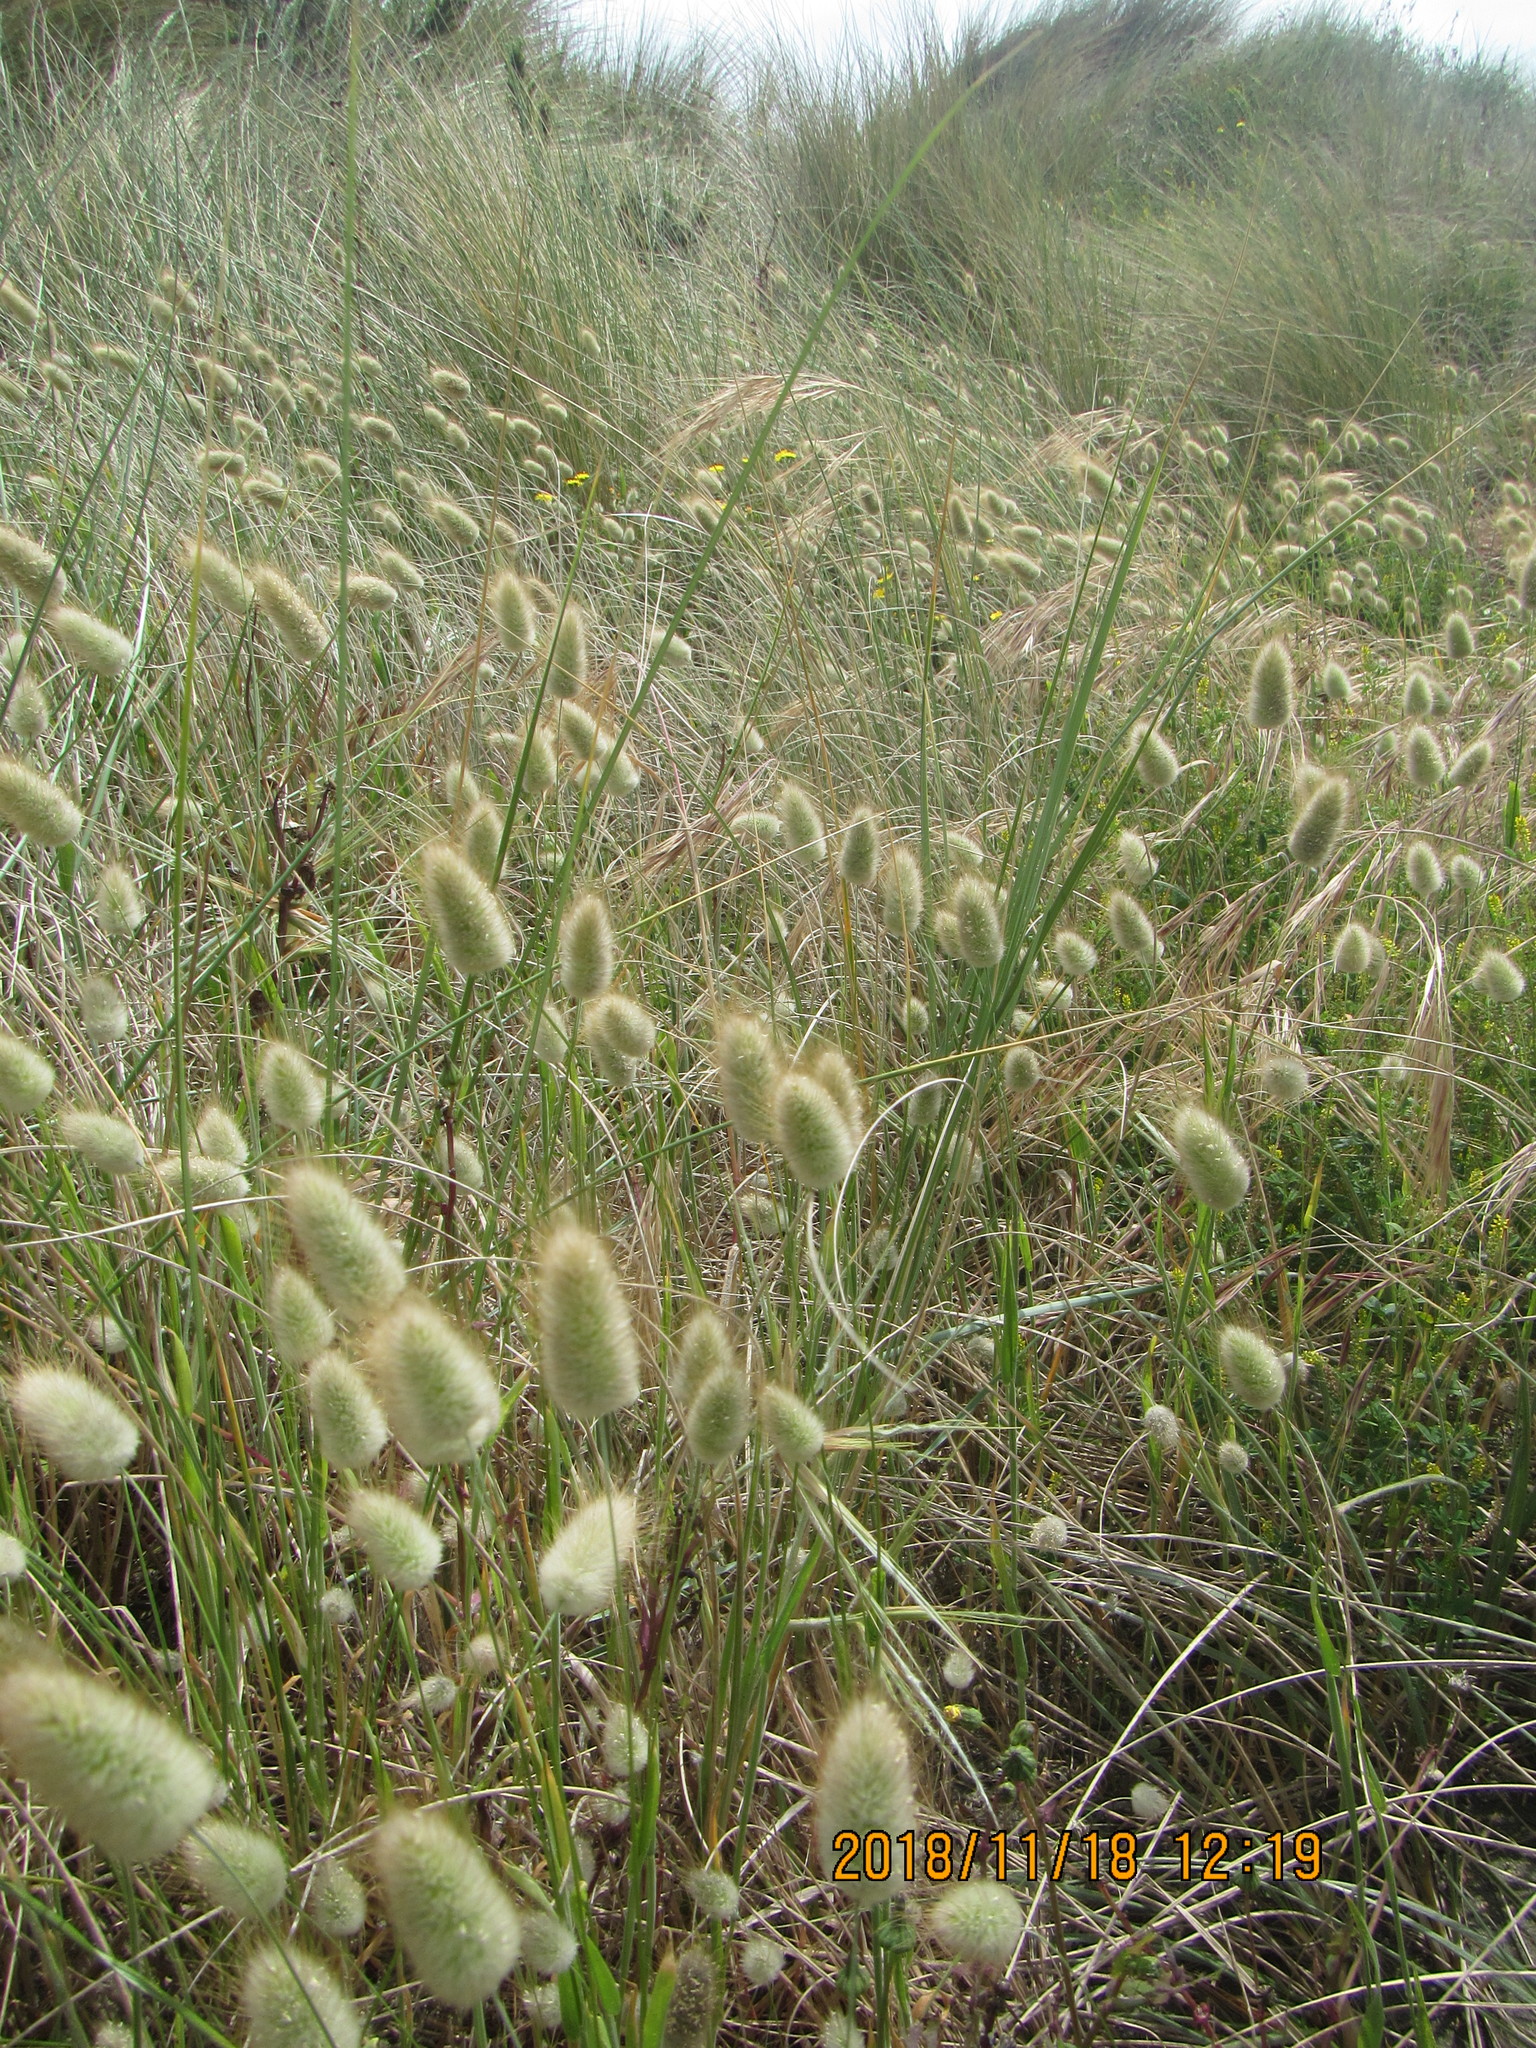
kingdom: Plantae
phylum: Tracheophyta
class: Liliopsida
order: Poales
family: Poaceae
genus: Lagurus
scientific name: Lagurus ovatus
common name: Hare's-tail
